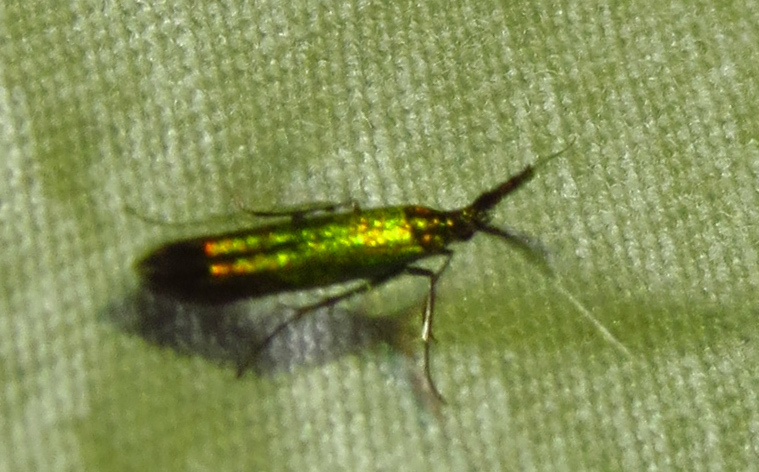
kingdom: Animalia
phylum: Arthropoda
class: Insecta
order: Lepidoptera
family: Coleophoridae
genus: Coleophora
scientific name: Coleophora mayrella
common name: Meadow case-bearer
